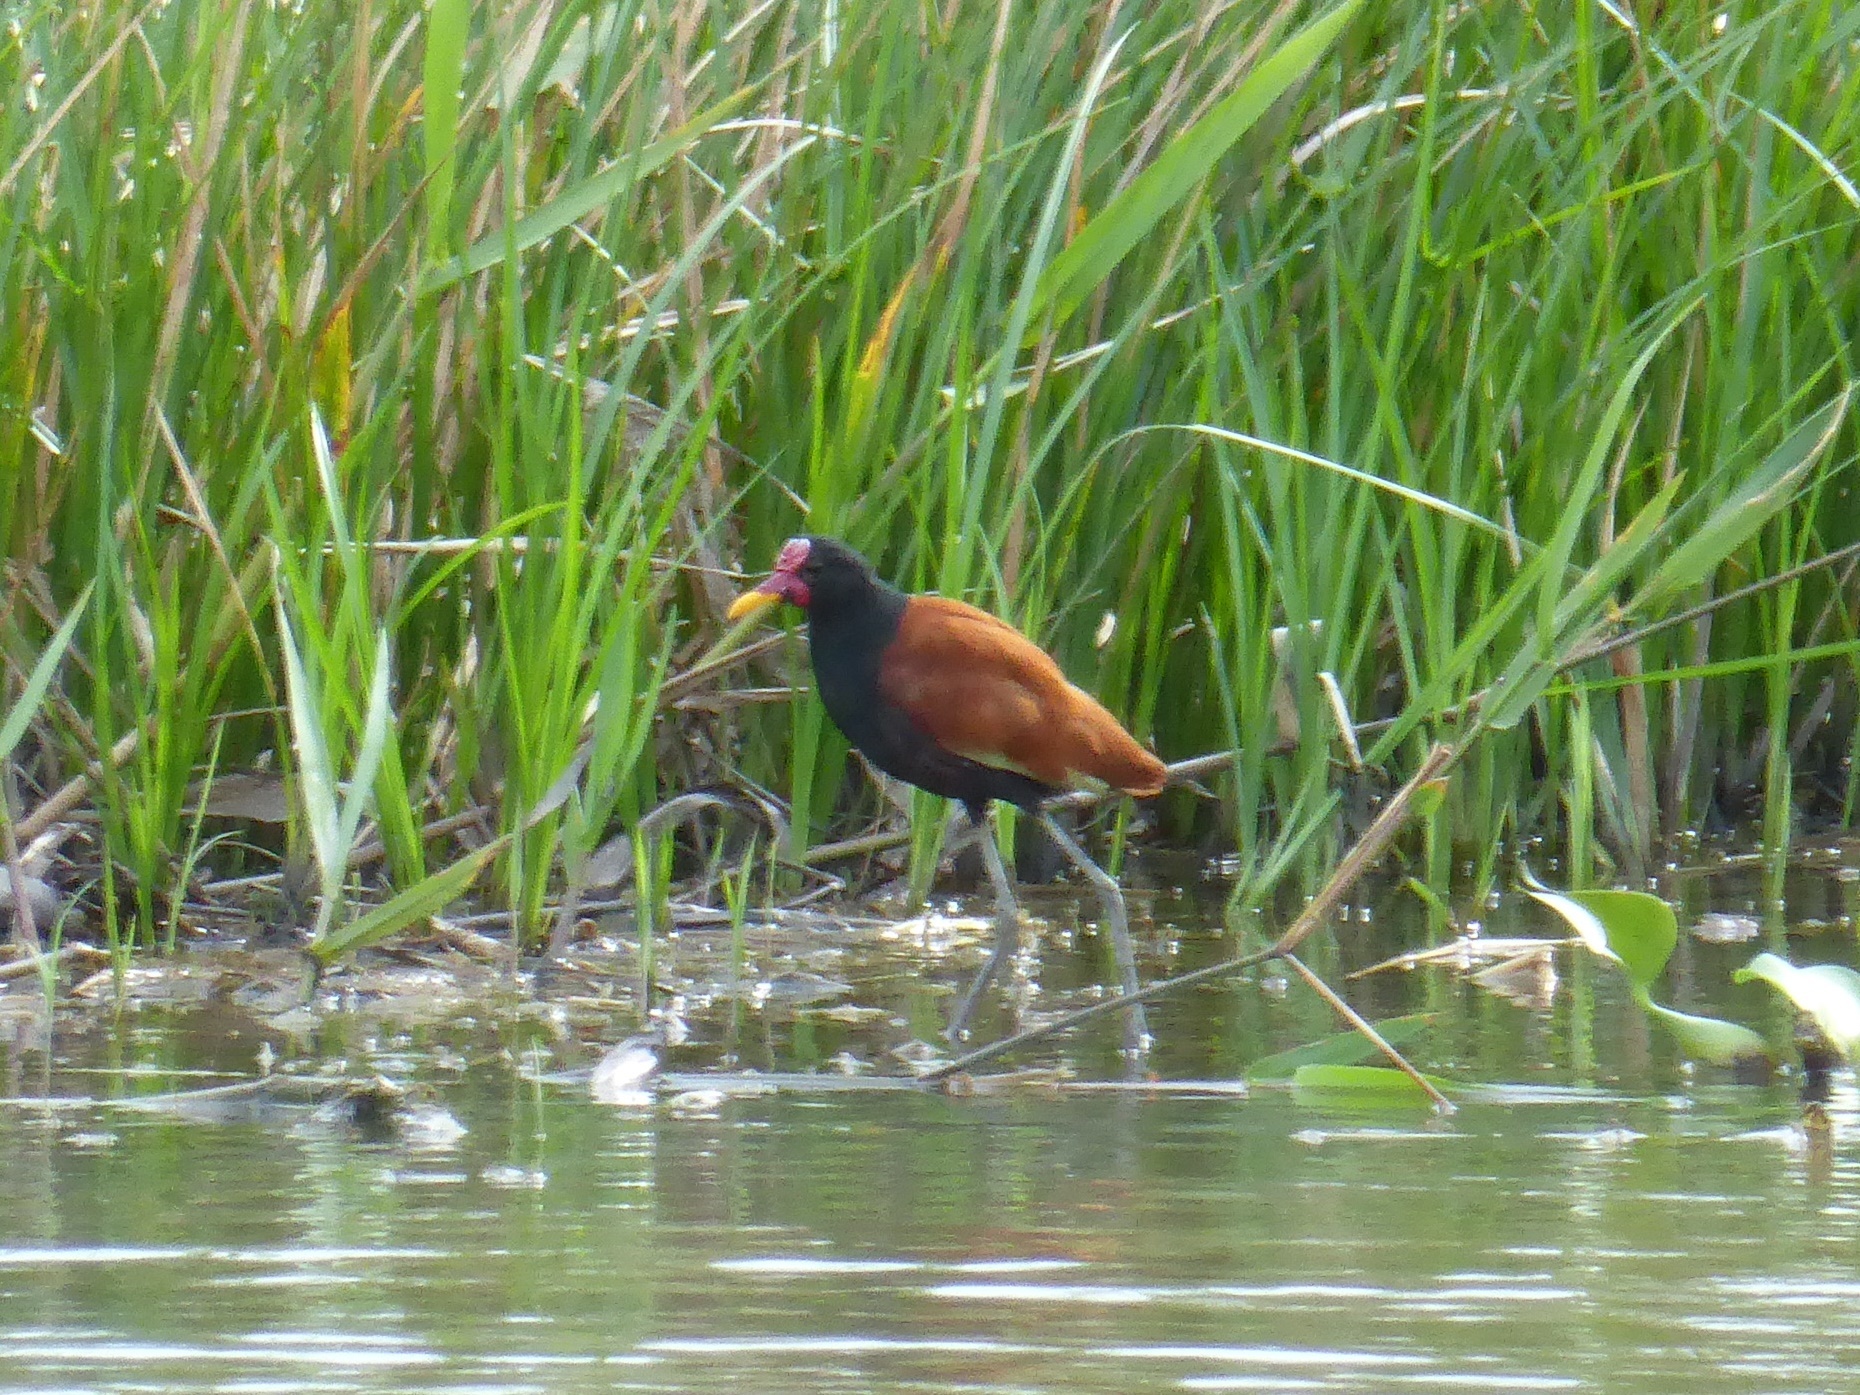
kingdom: Animalia
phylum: Chordata
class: Aves
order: Charadriiformes
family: Jacanidae
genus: Jacana
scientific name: Jacana jacana
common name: Wattled jacana
